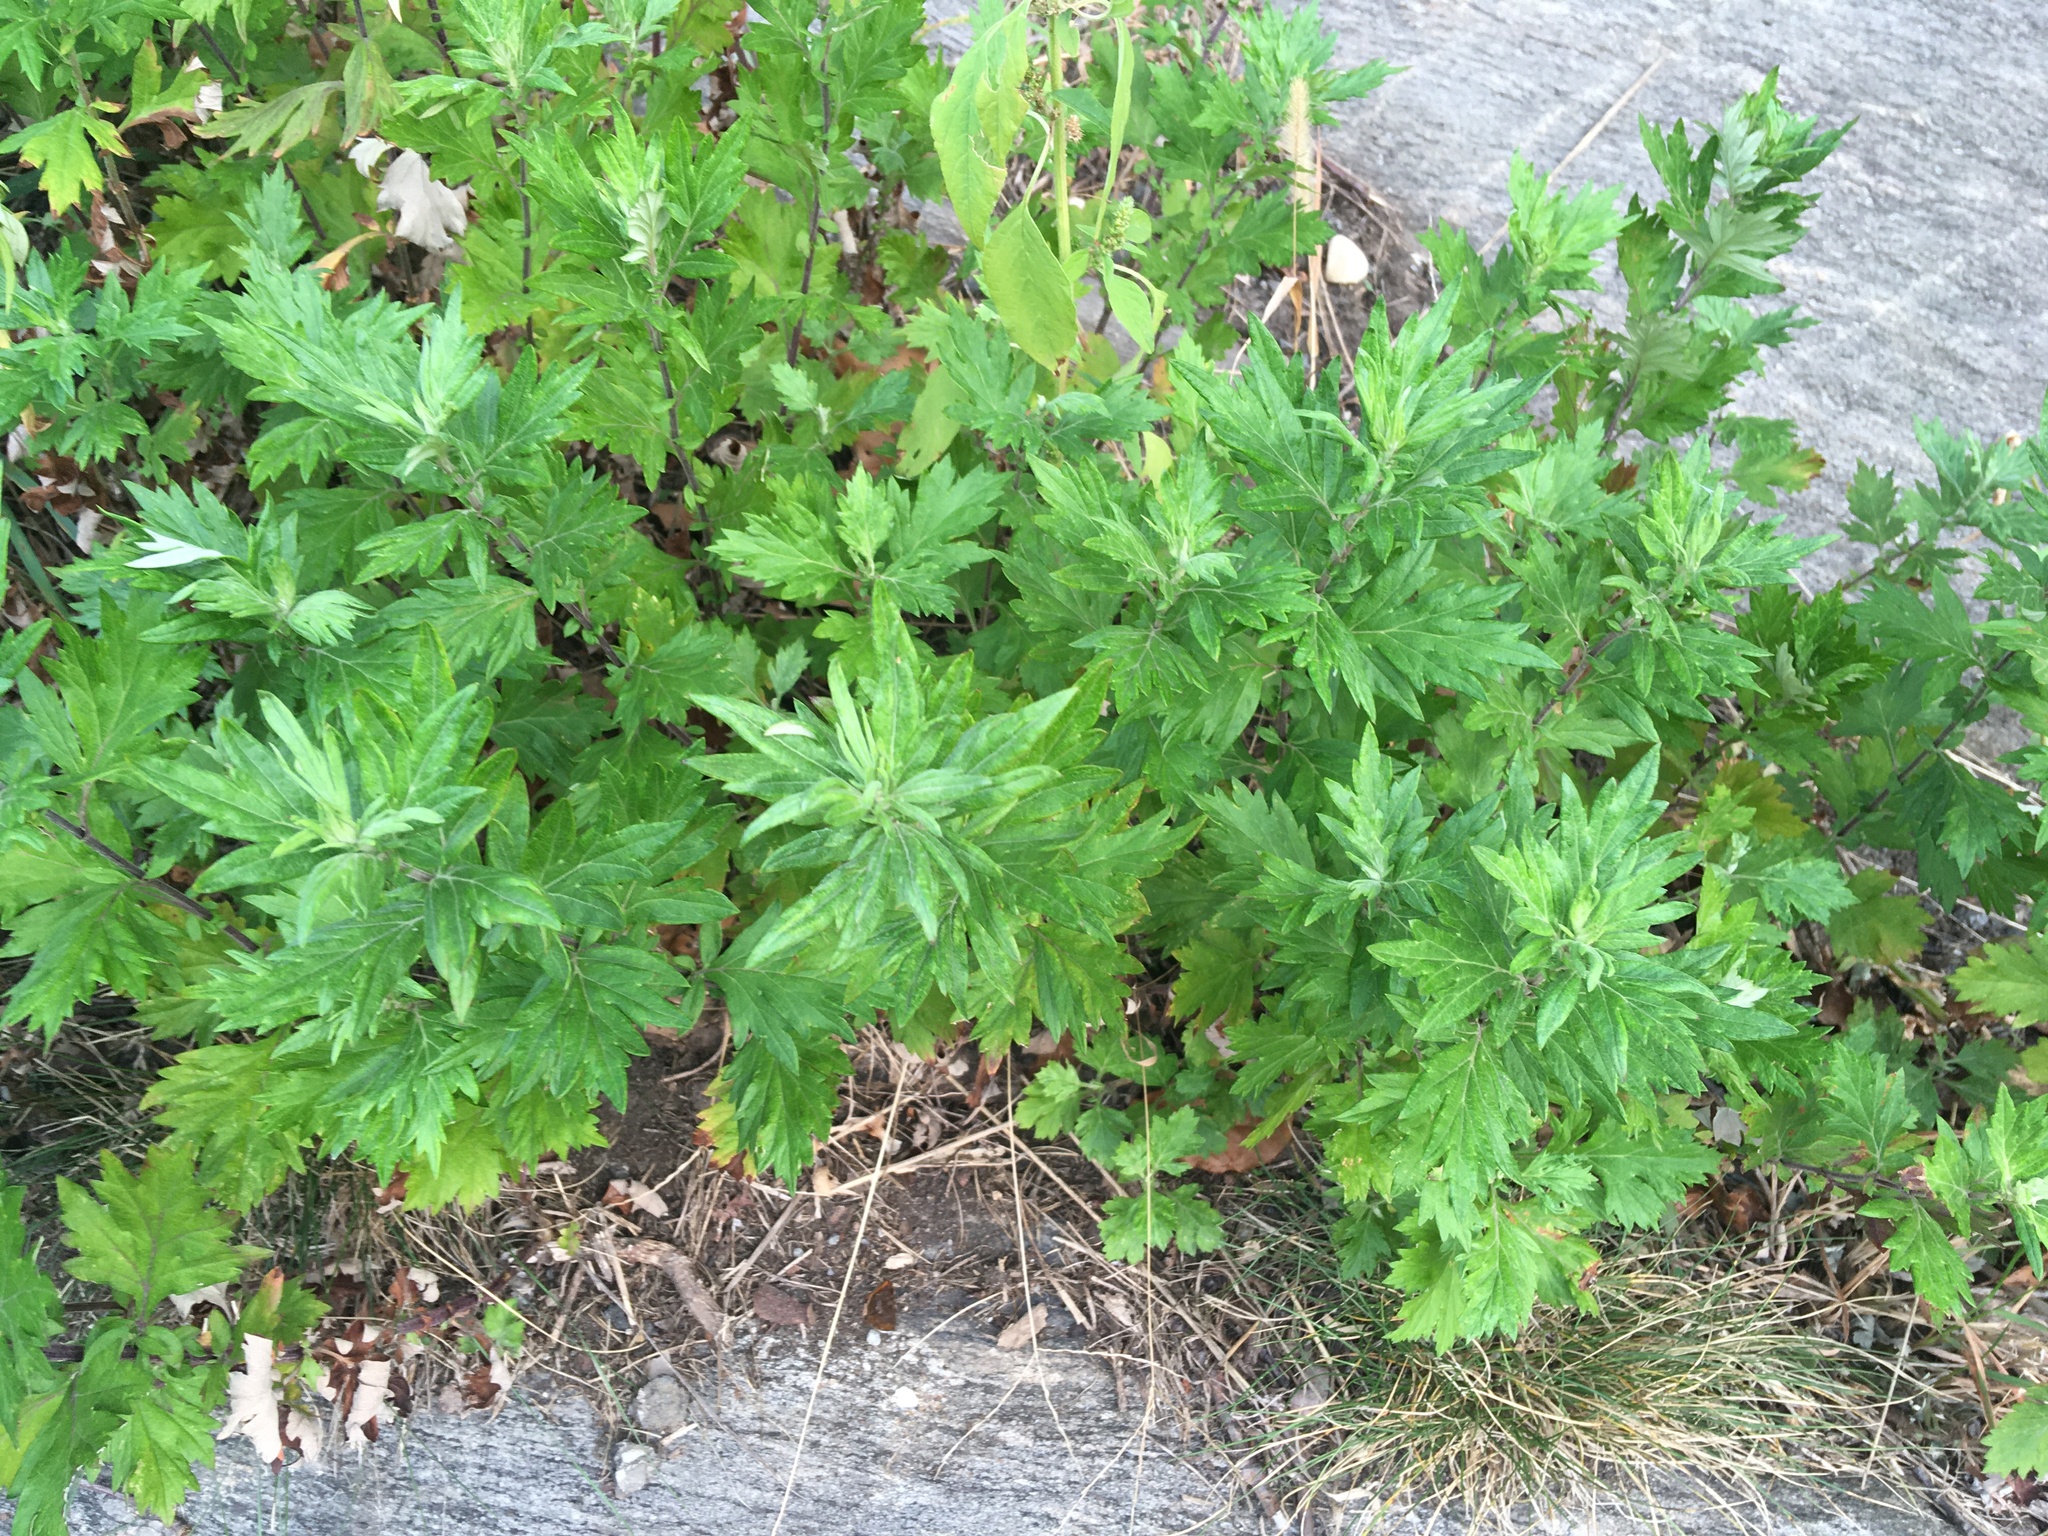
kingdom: Plantae
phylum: Tracheophyta
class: Magnoliopsida
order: Asterales
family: Asteraceae
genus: Artemisia
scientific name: Artemisia vulgaris
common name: Mugwort
